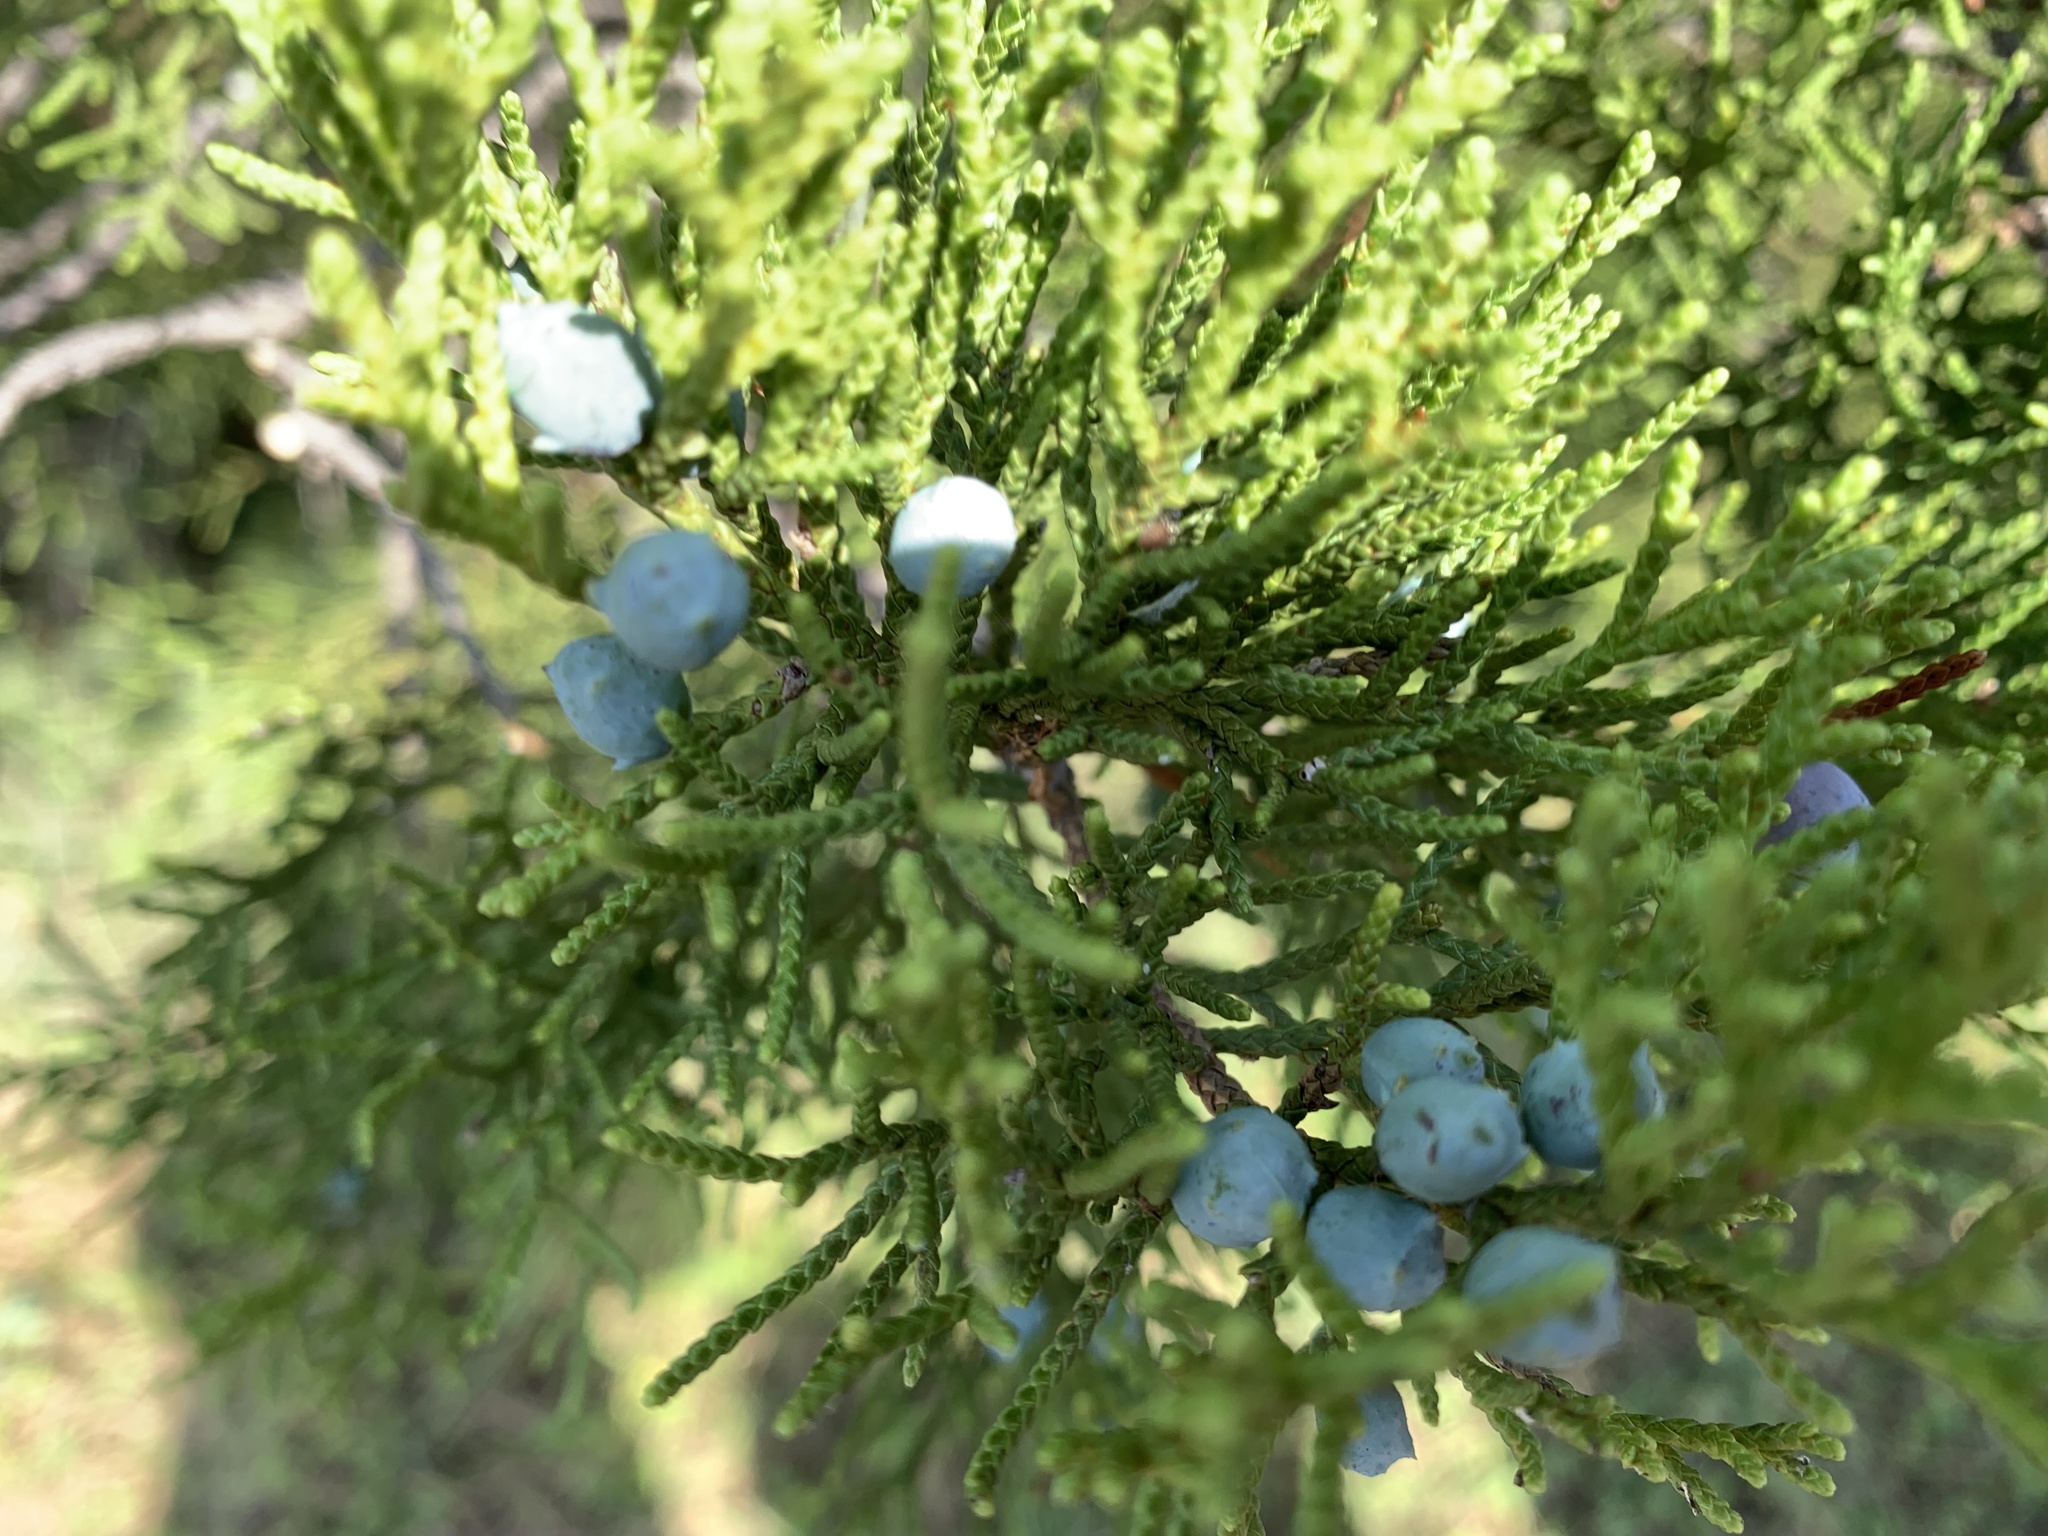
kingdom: Plantae
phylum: Tracheophyta
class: Pinopsida
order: Pinales
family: Cupressaceae
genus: Juniperus
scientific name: Juniperus ashei
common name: Mexican juniper
